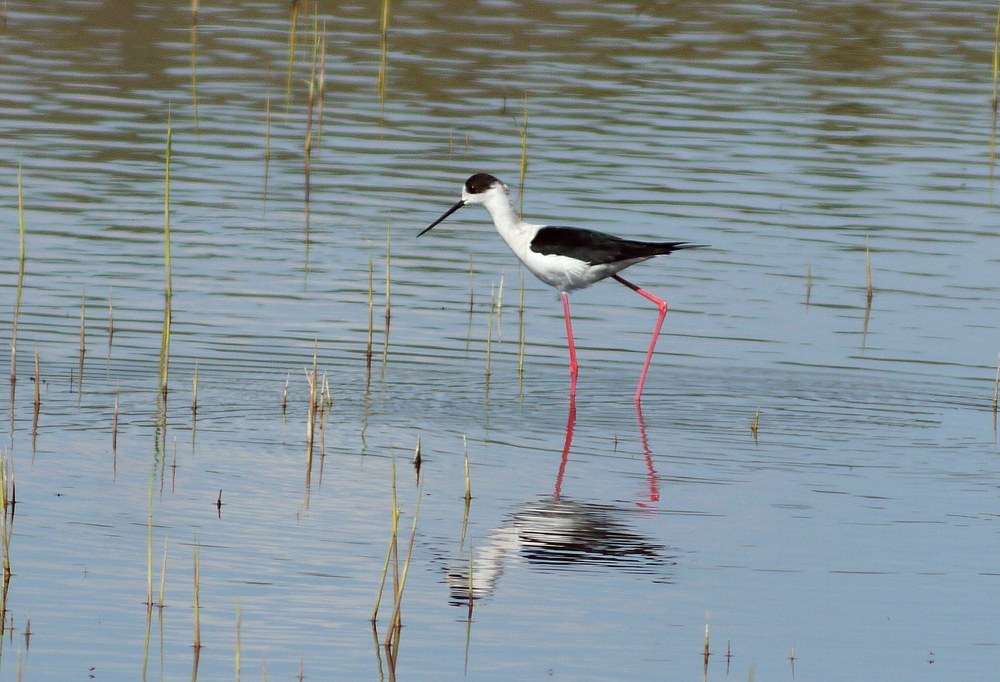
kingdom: Animalia
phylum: Chordata
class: Aves
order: Charadriiformes
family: Recurvirostridae
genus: Himantopus
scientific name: Himantopus himantopus
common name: Black-winged stilt
